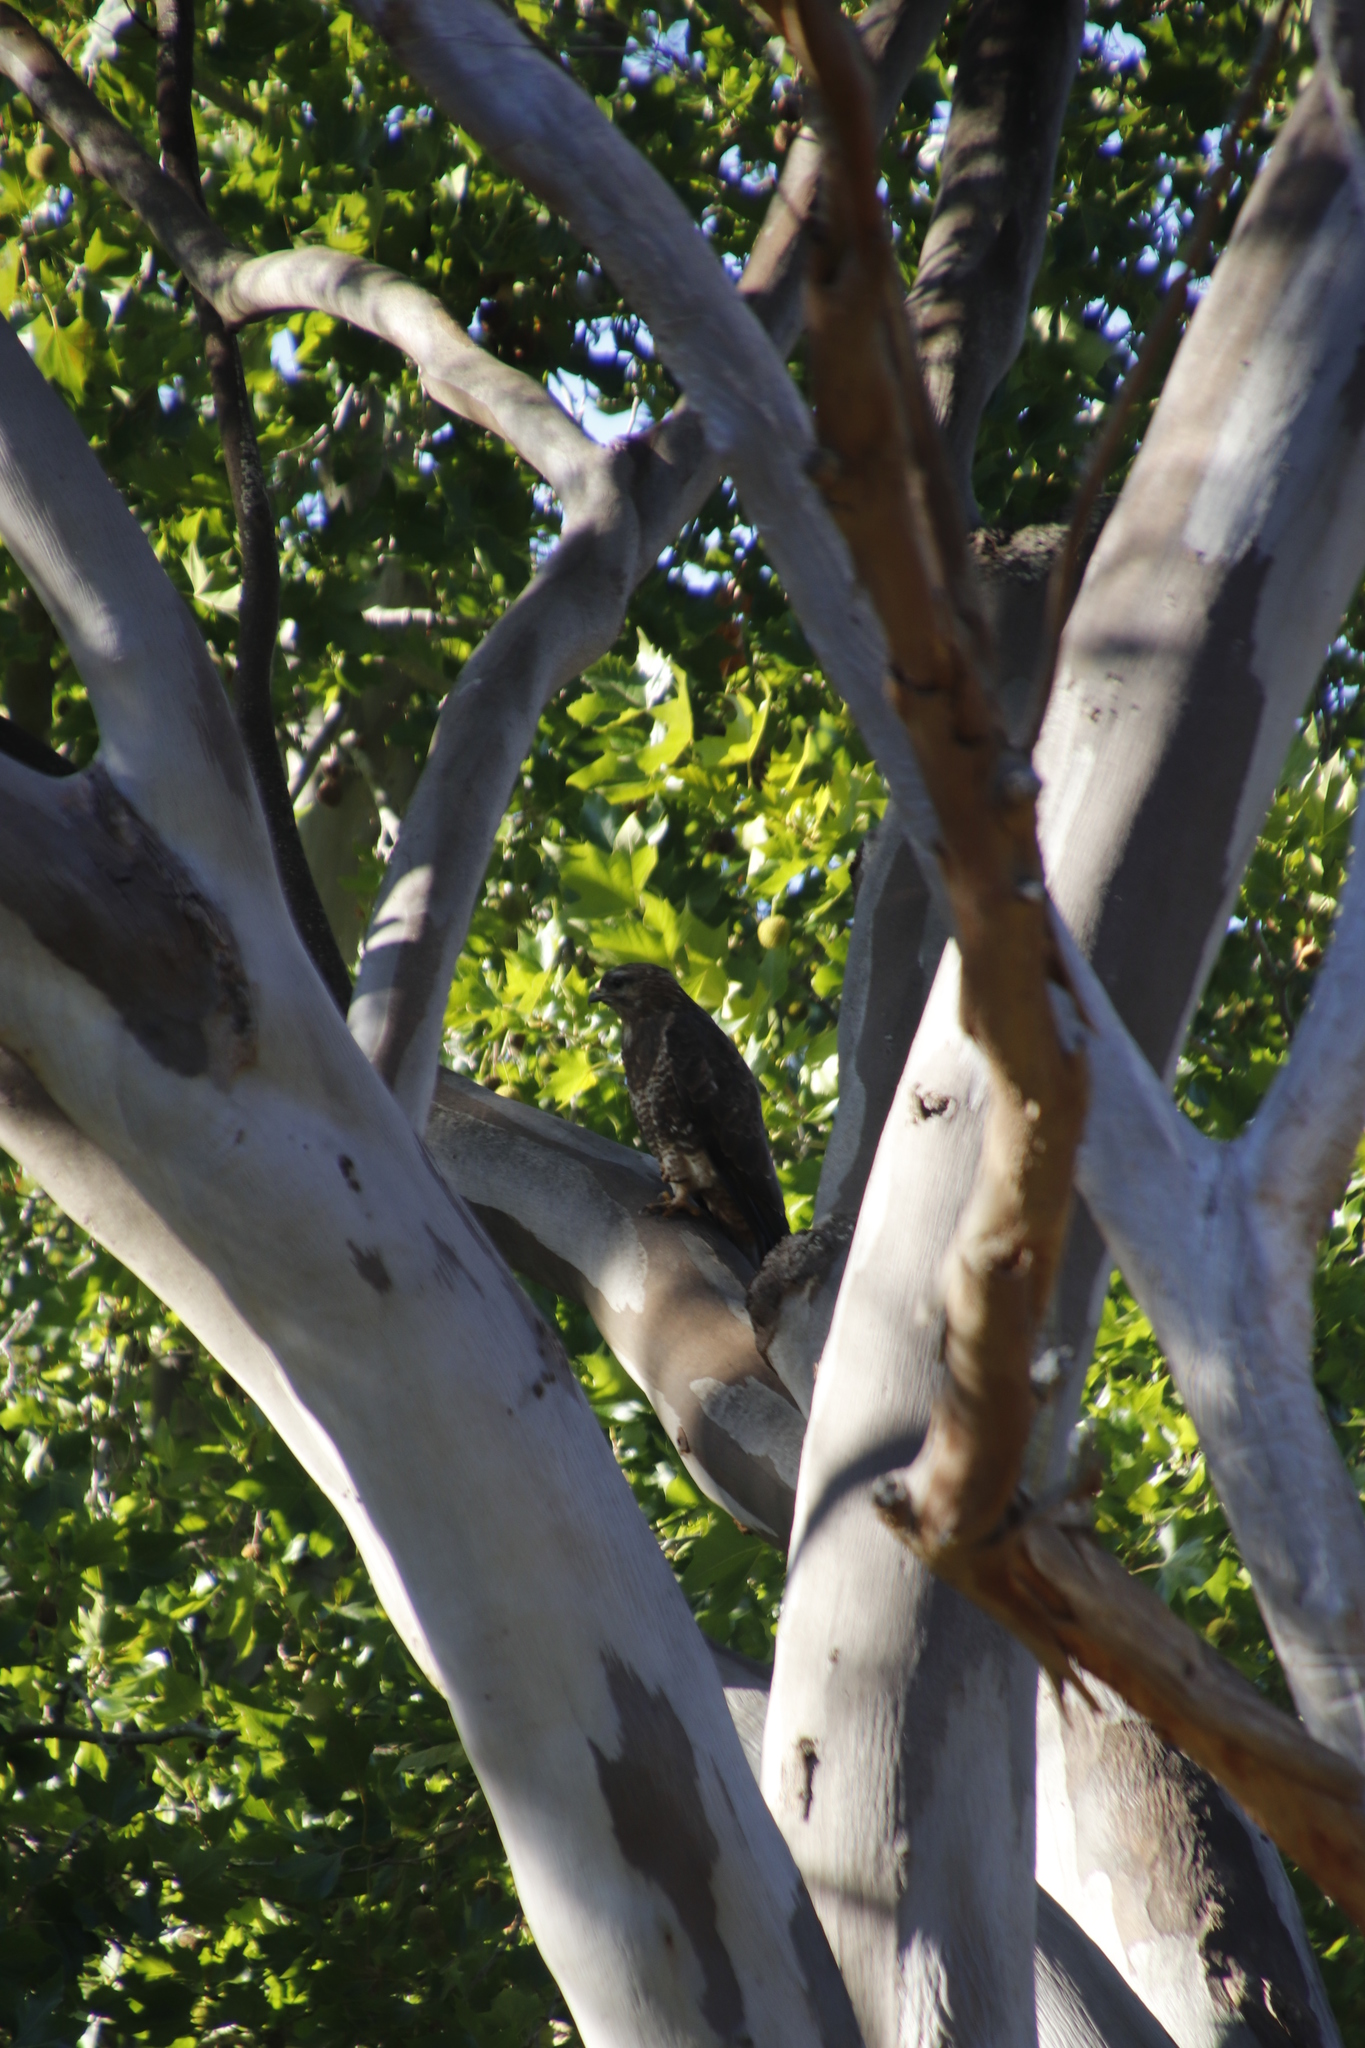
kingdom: Animalia
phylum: Chordata
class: Aves
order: Accipitriformes
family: Accipitridae
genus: Buteo
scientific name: Buteo buteo
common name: Common buzzard
